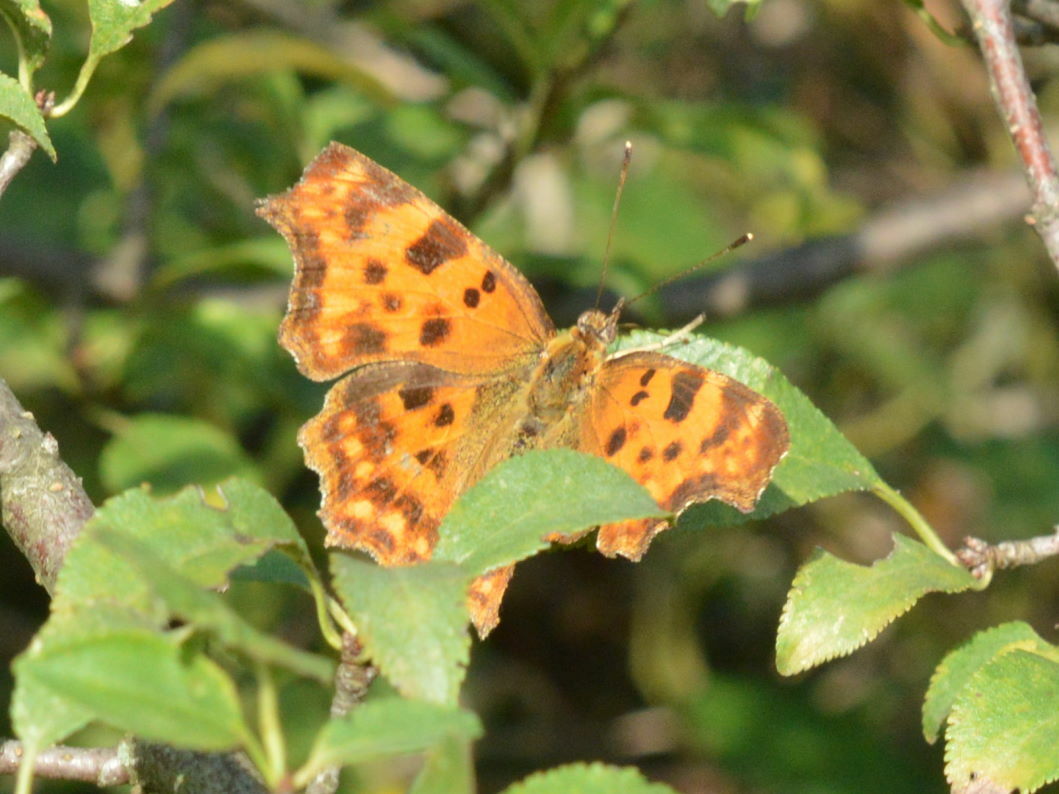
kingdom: Animalia
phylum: Arthropoda
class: Insecta
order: Lepidoptera
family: Nymphalidae
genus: Polygonia
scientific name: Polygonia c-album
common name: Comma
